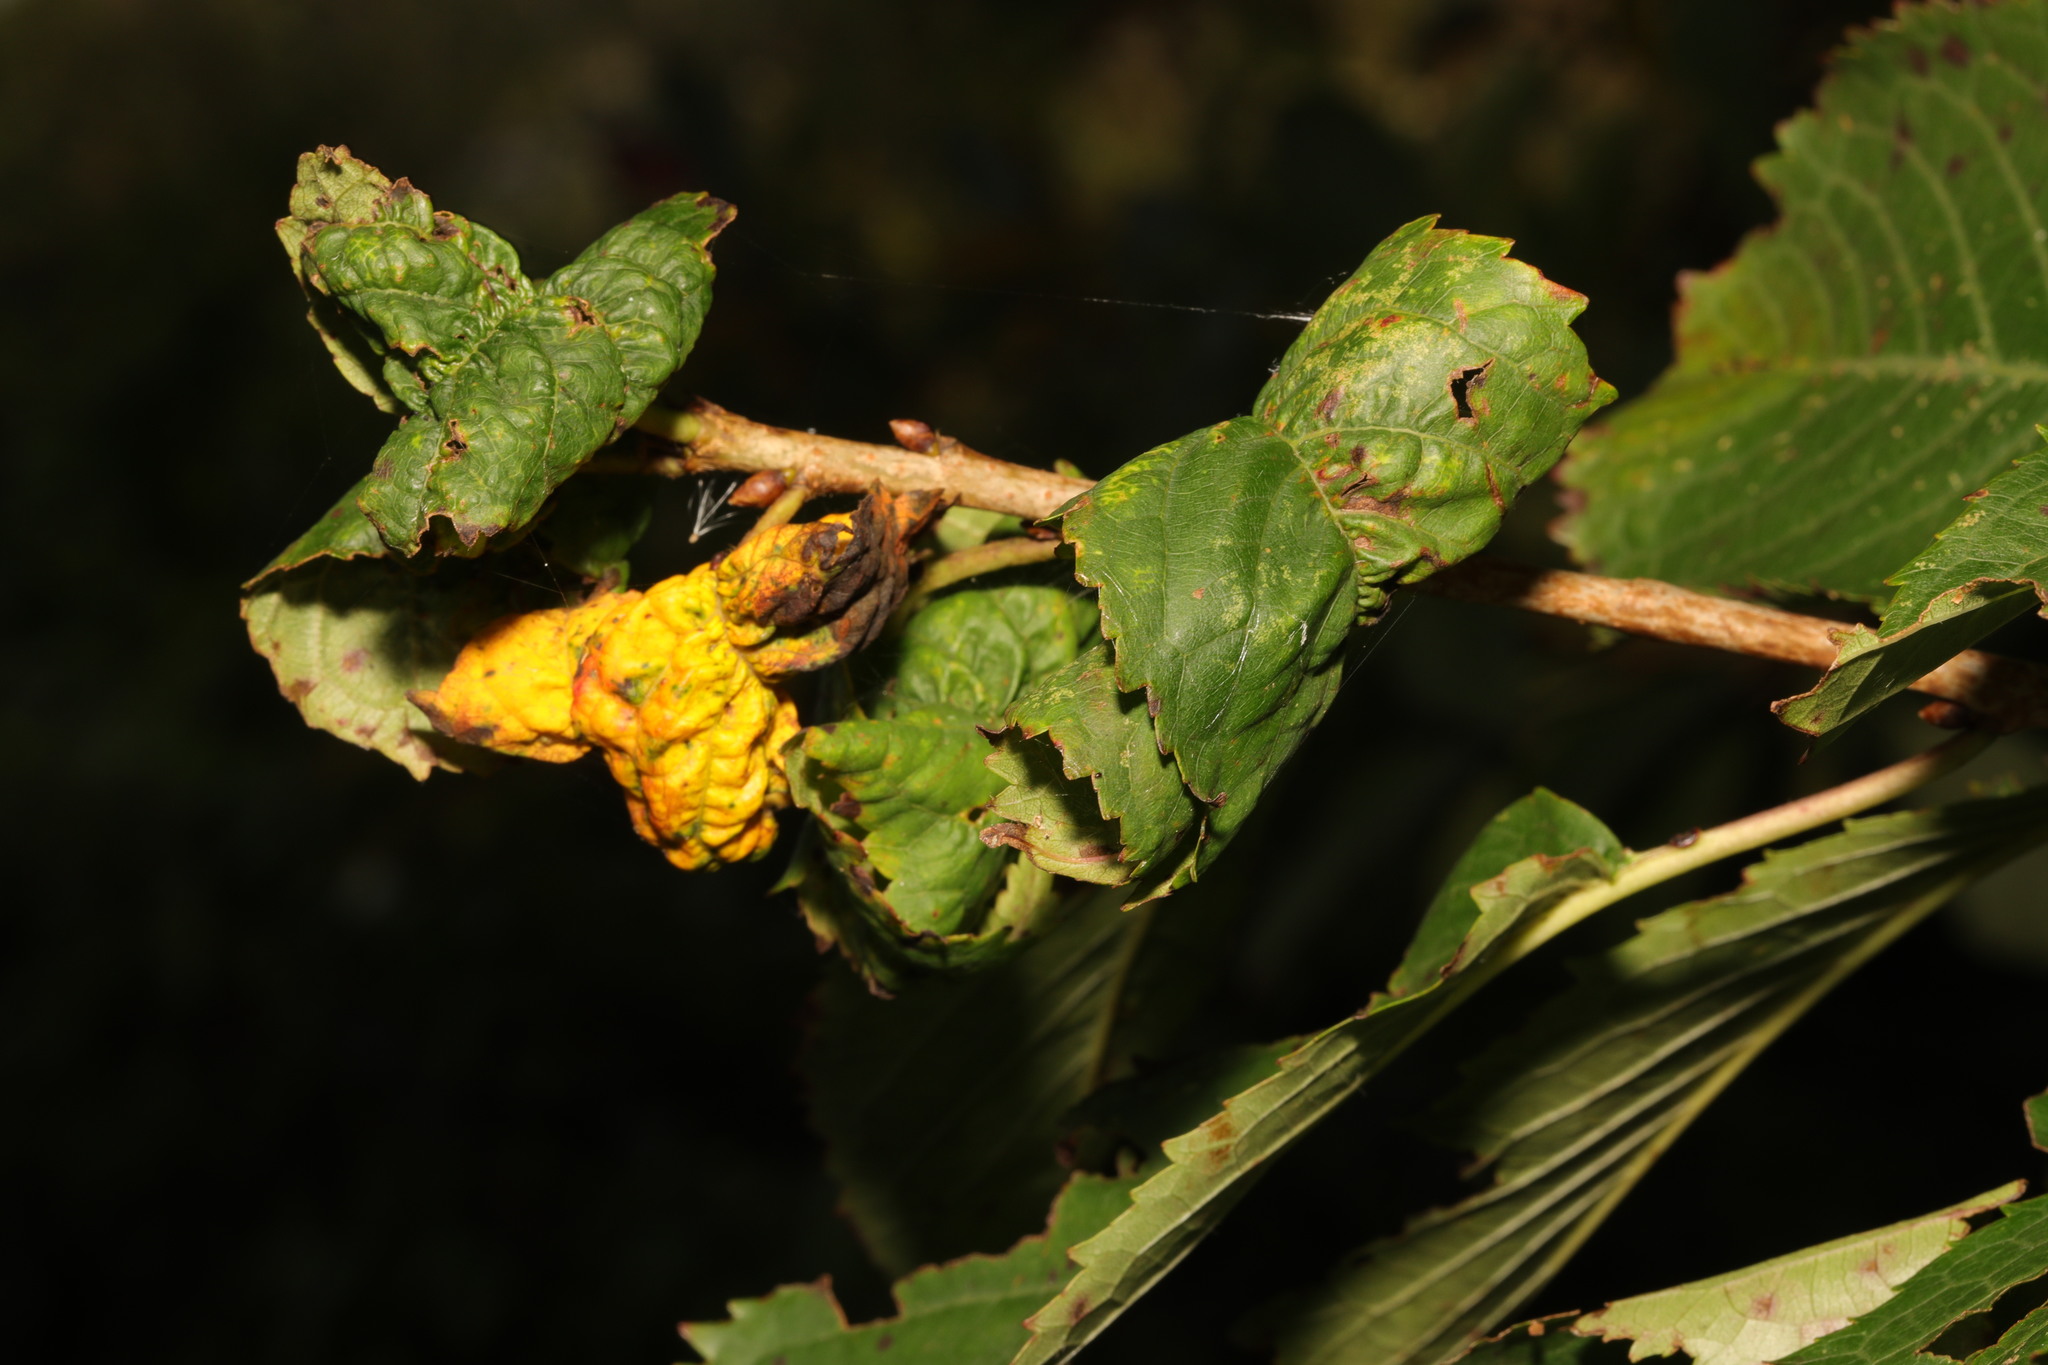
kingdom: Animalia
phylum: Arthropoda
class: Insecta
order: Hemiptera
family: Aphididae
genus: Myzus
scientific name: Myzus cerasi
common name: Black cherry aphid
